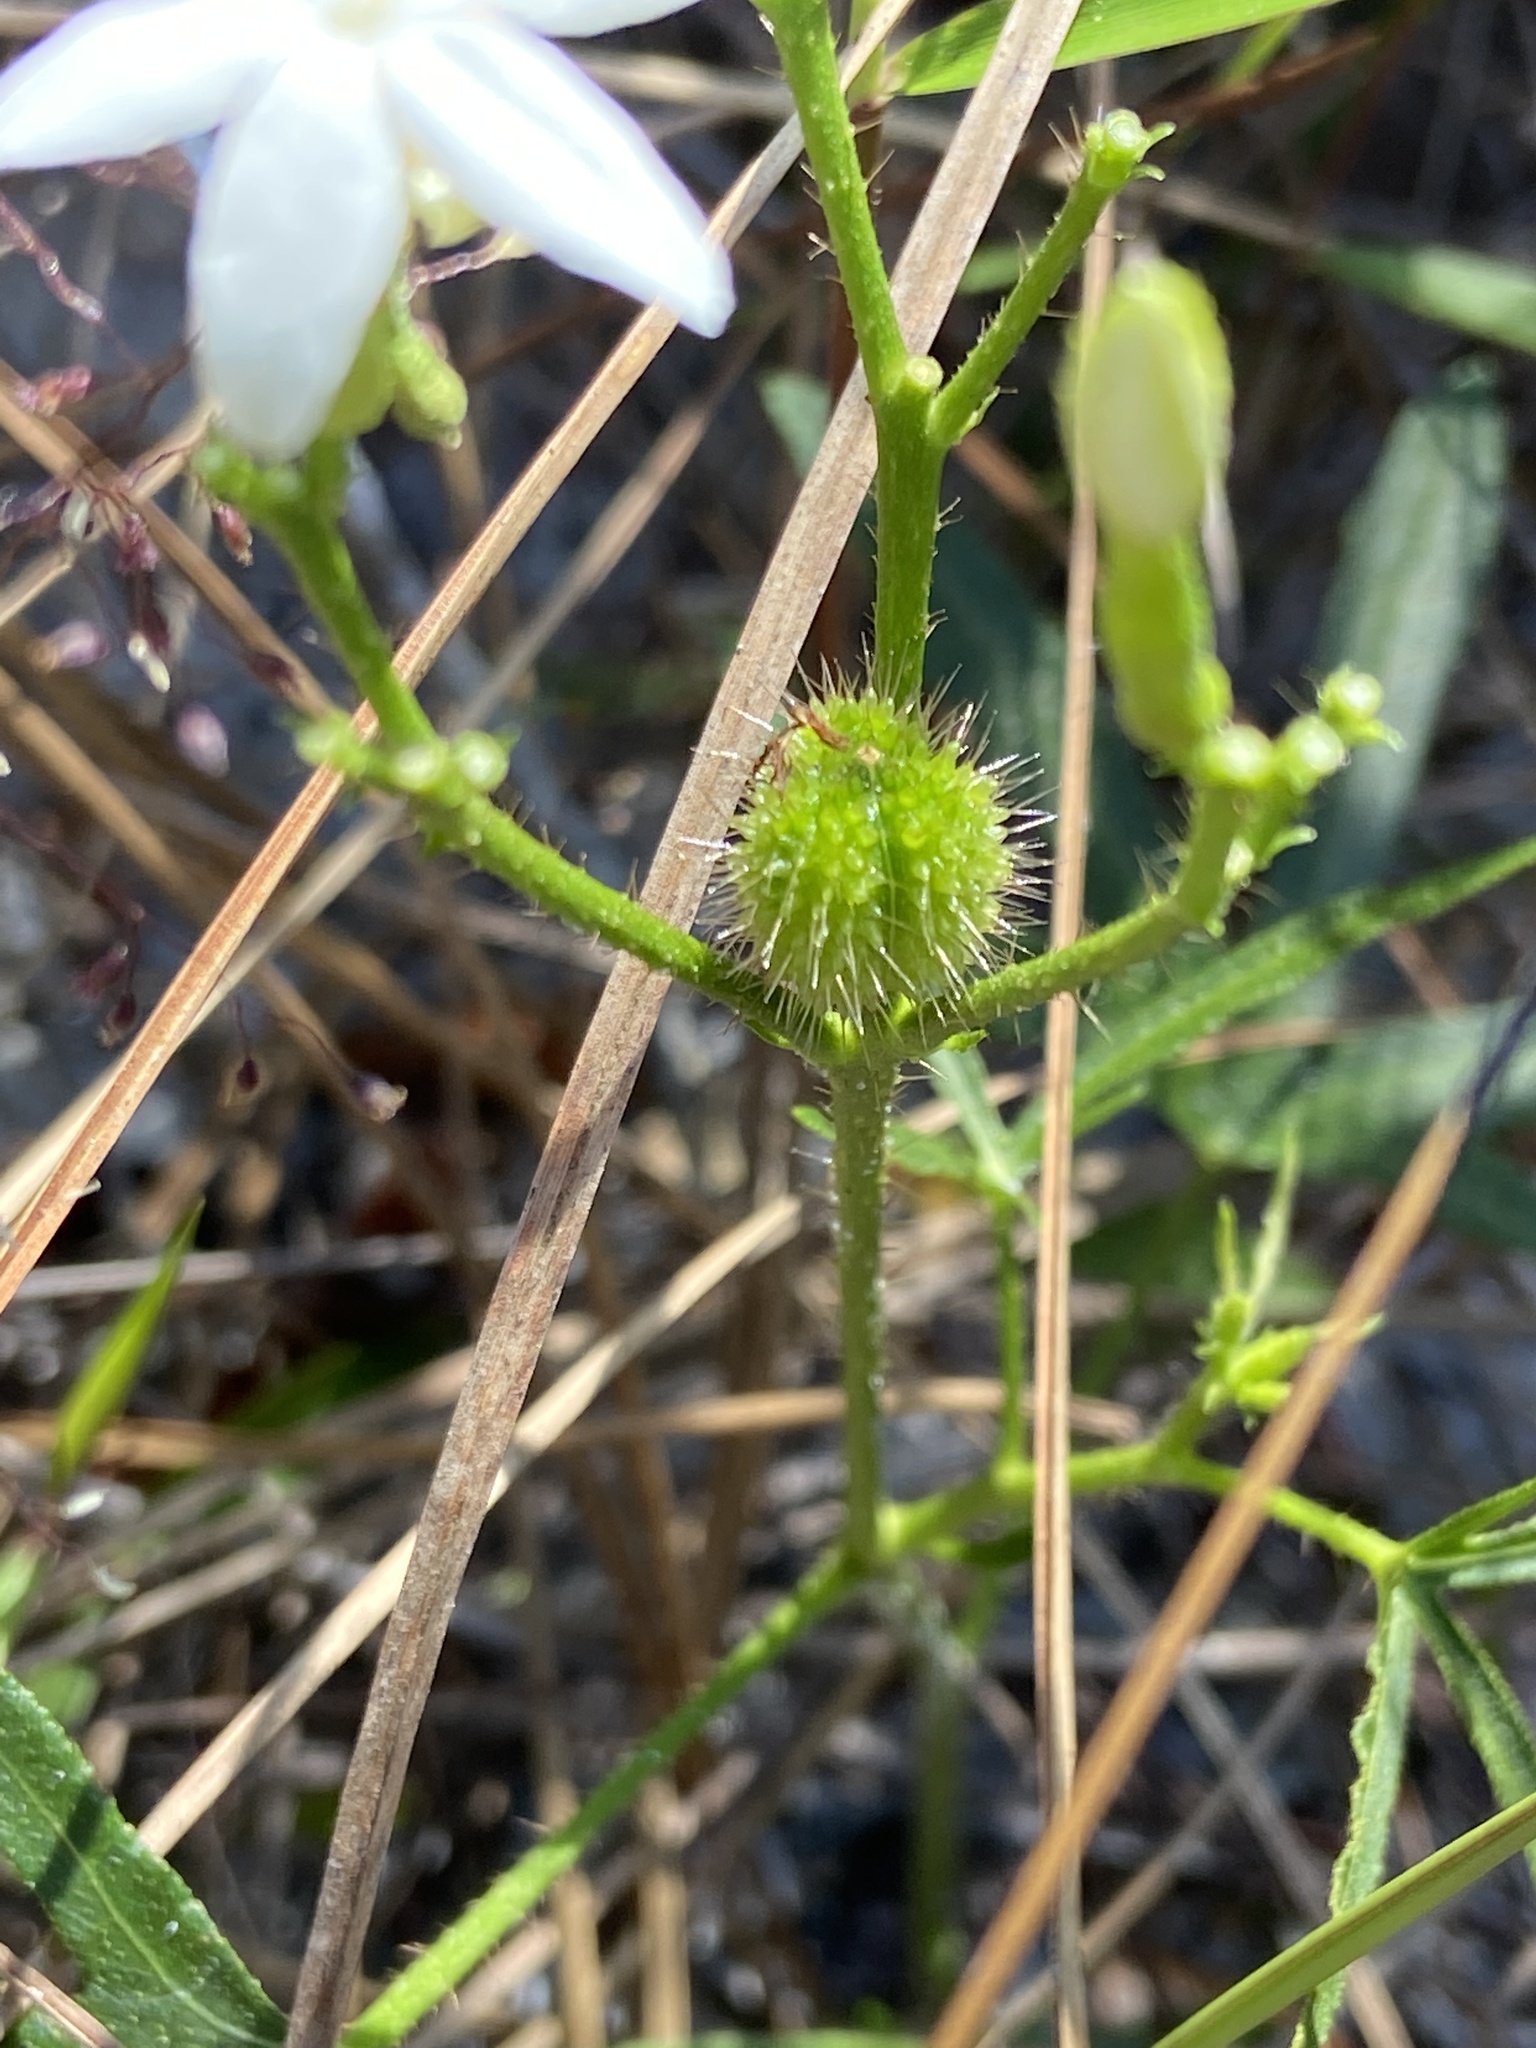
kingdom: Plantae
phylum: Tracheophyta
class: Magnoliopsida
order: Malpighiales
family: Euphorbiaceae
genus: Cnidoscolus
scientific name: Cnidoscolus stimulosus
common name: Bull-nettle
